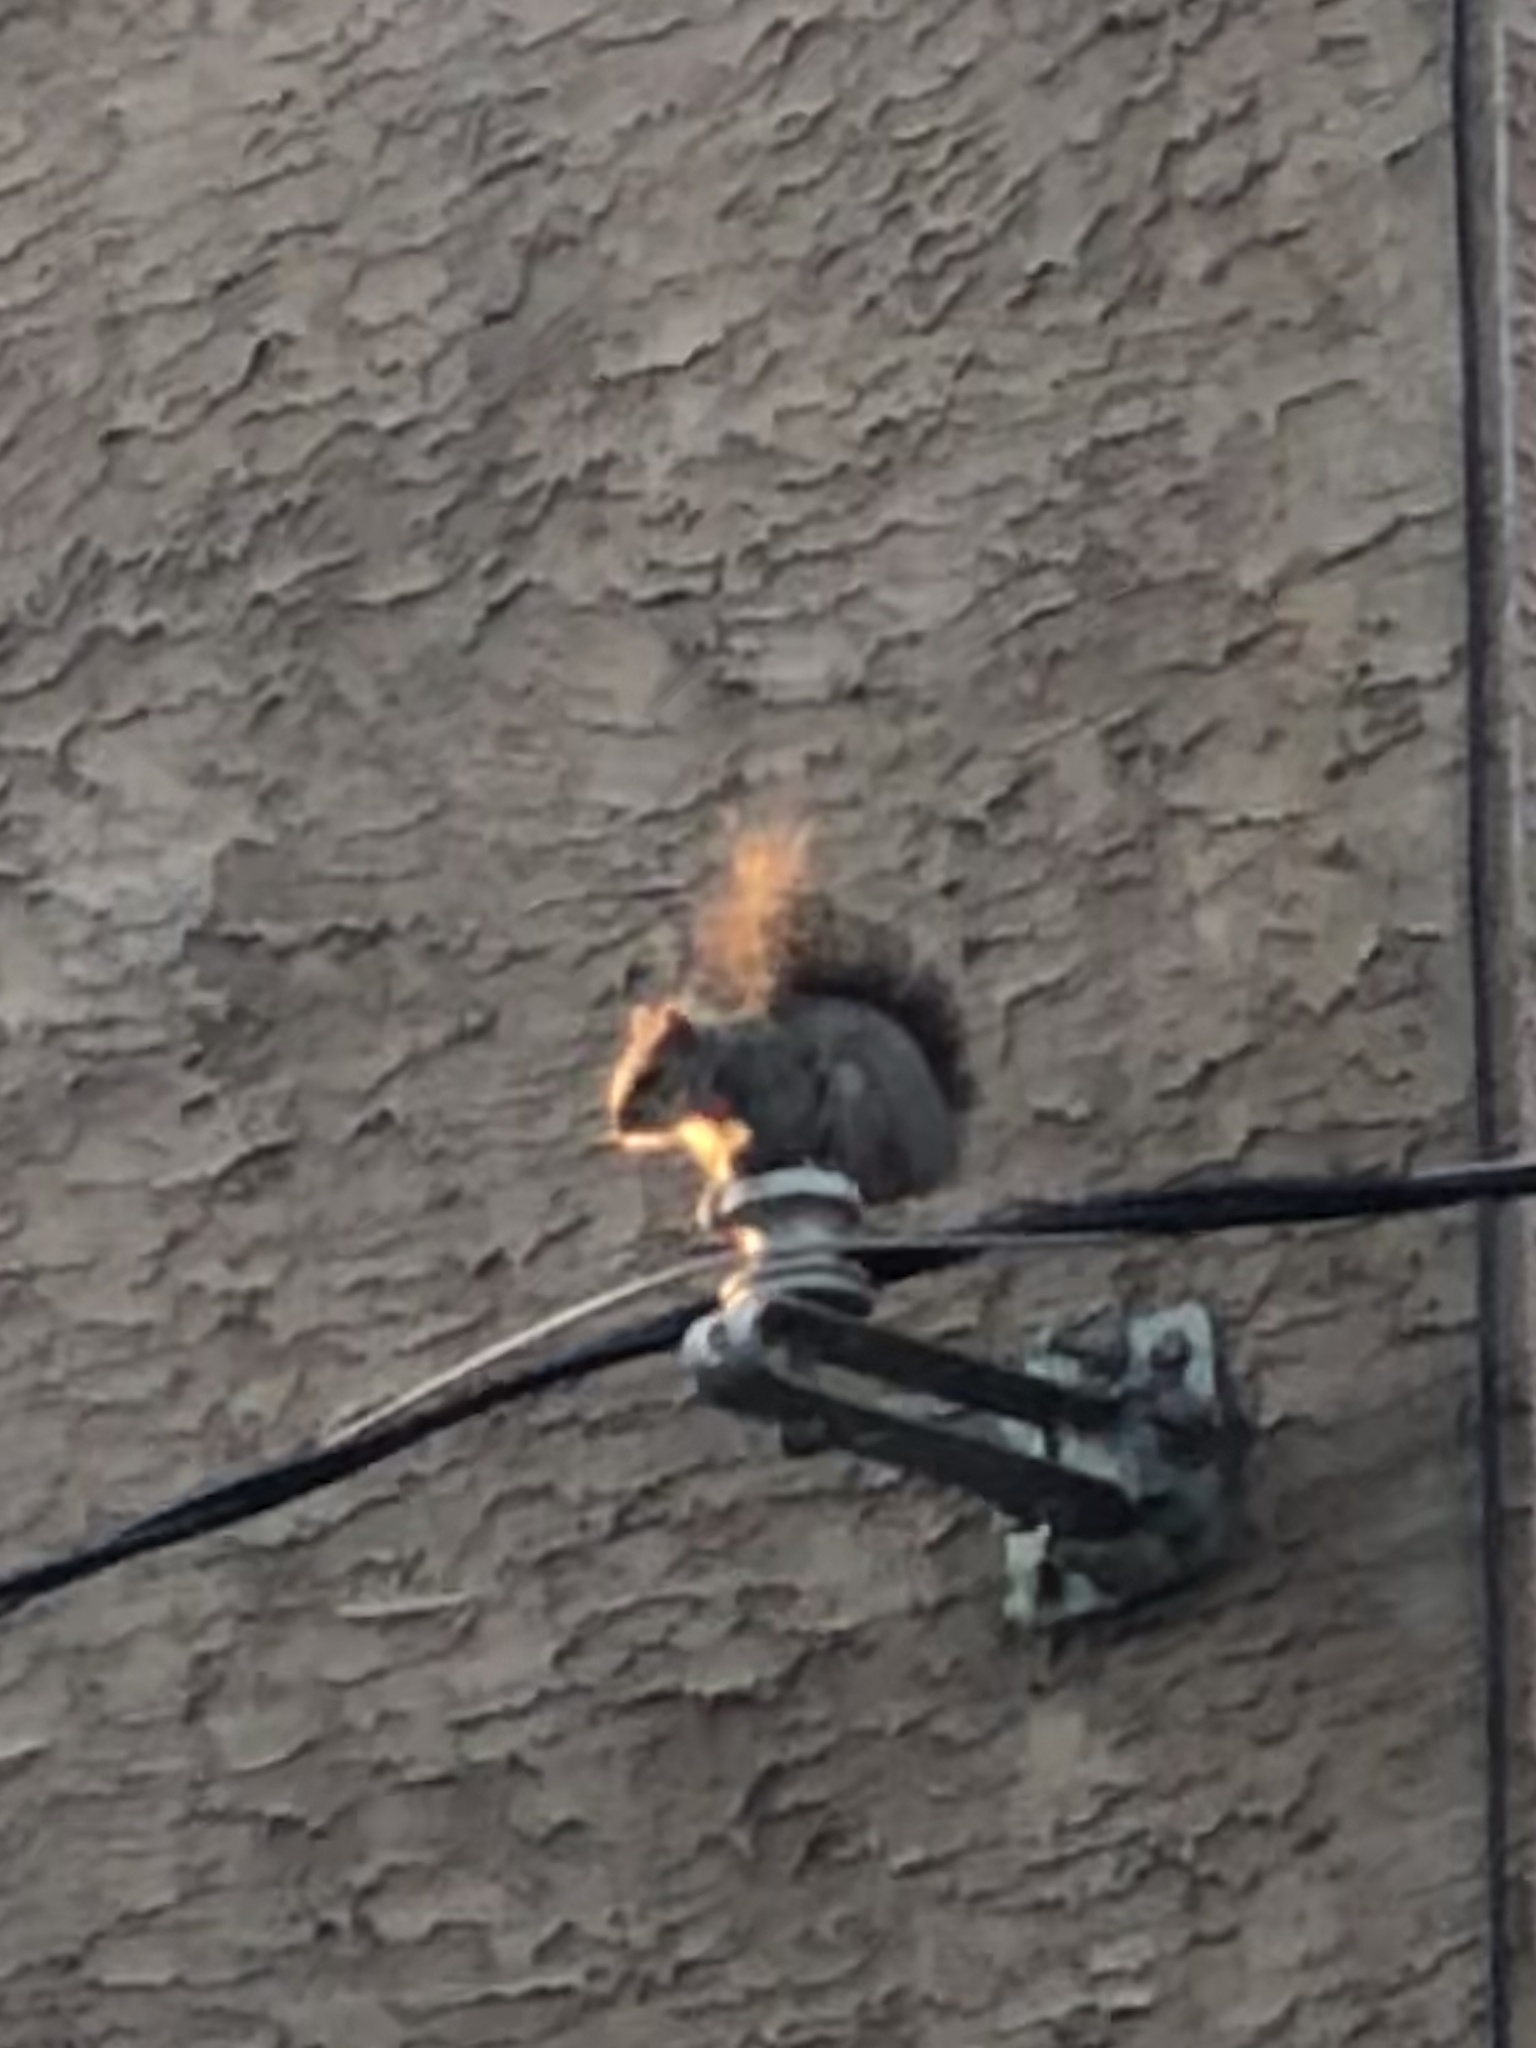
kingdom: Animalia
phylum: Chordata
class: Mammalia
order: Rodentia
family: Sciuridae
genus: Sciurus
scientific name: Sciurus carolinensis
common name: Eastern gray squirrel
